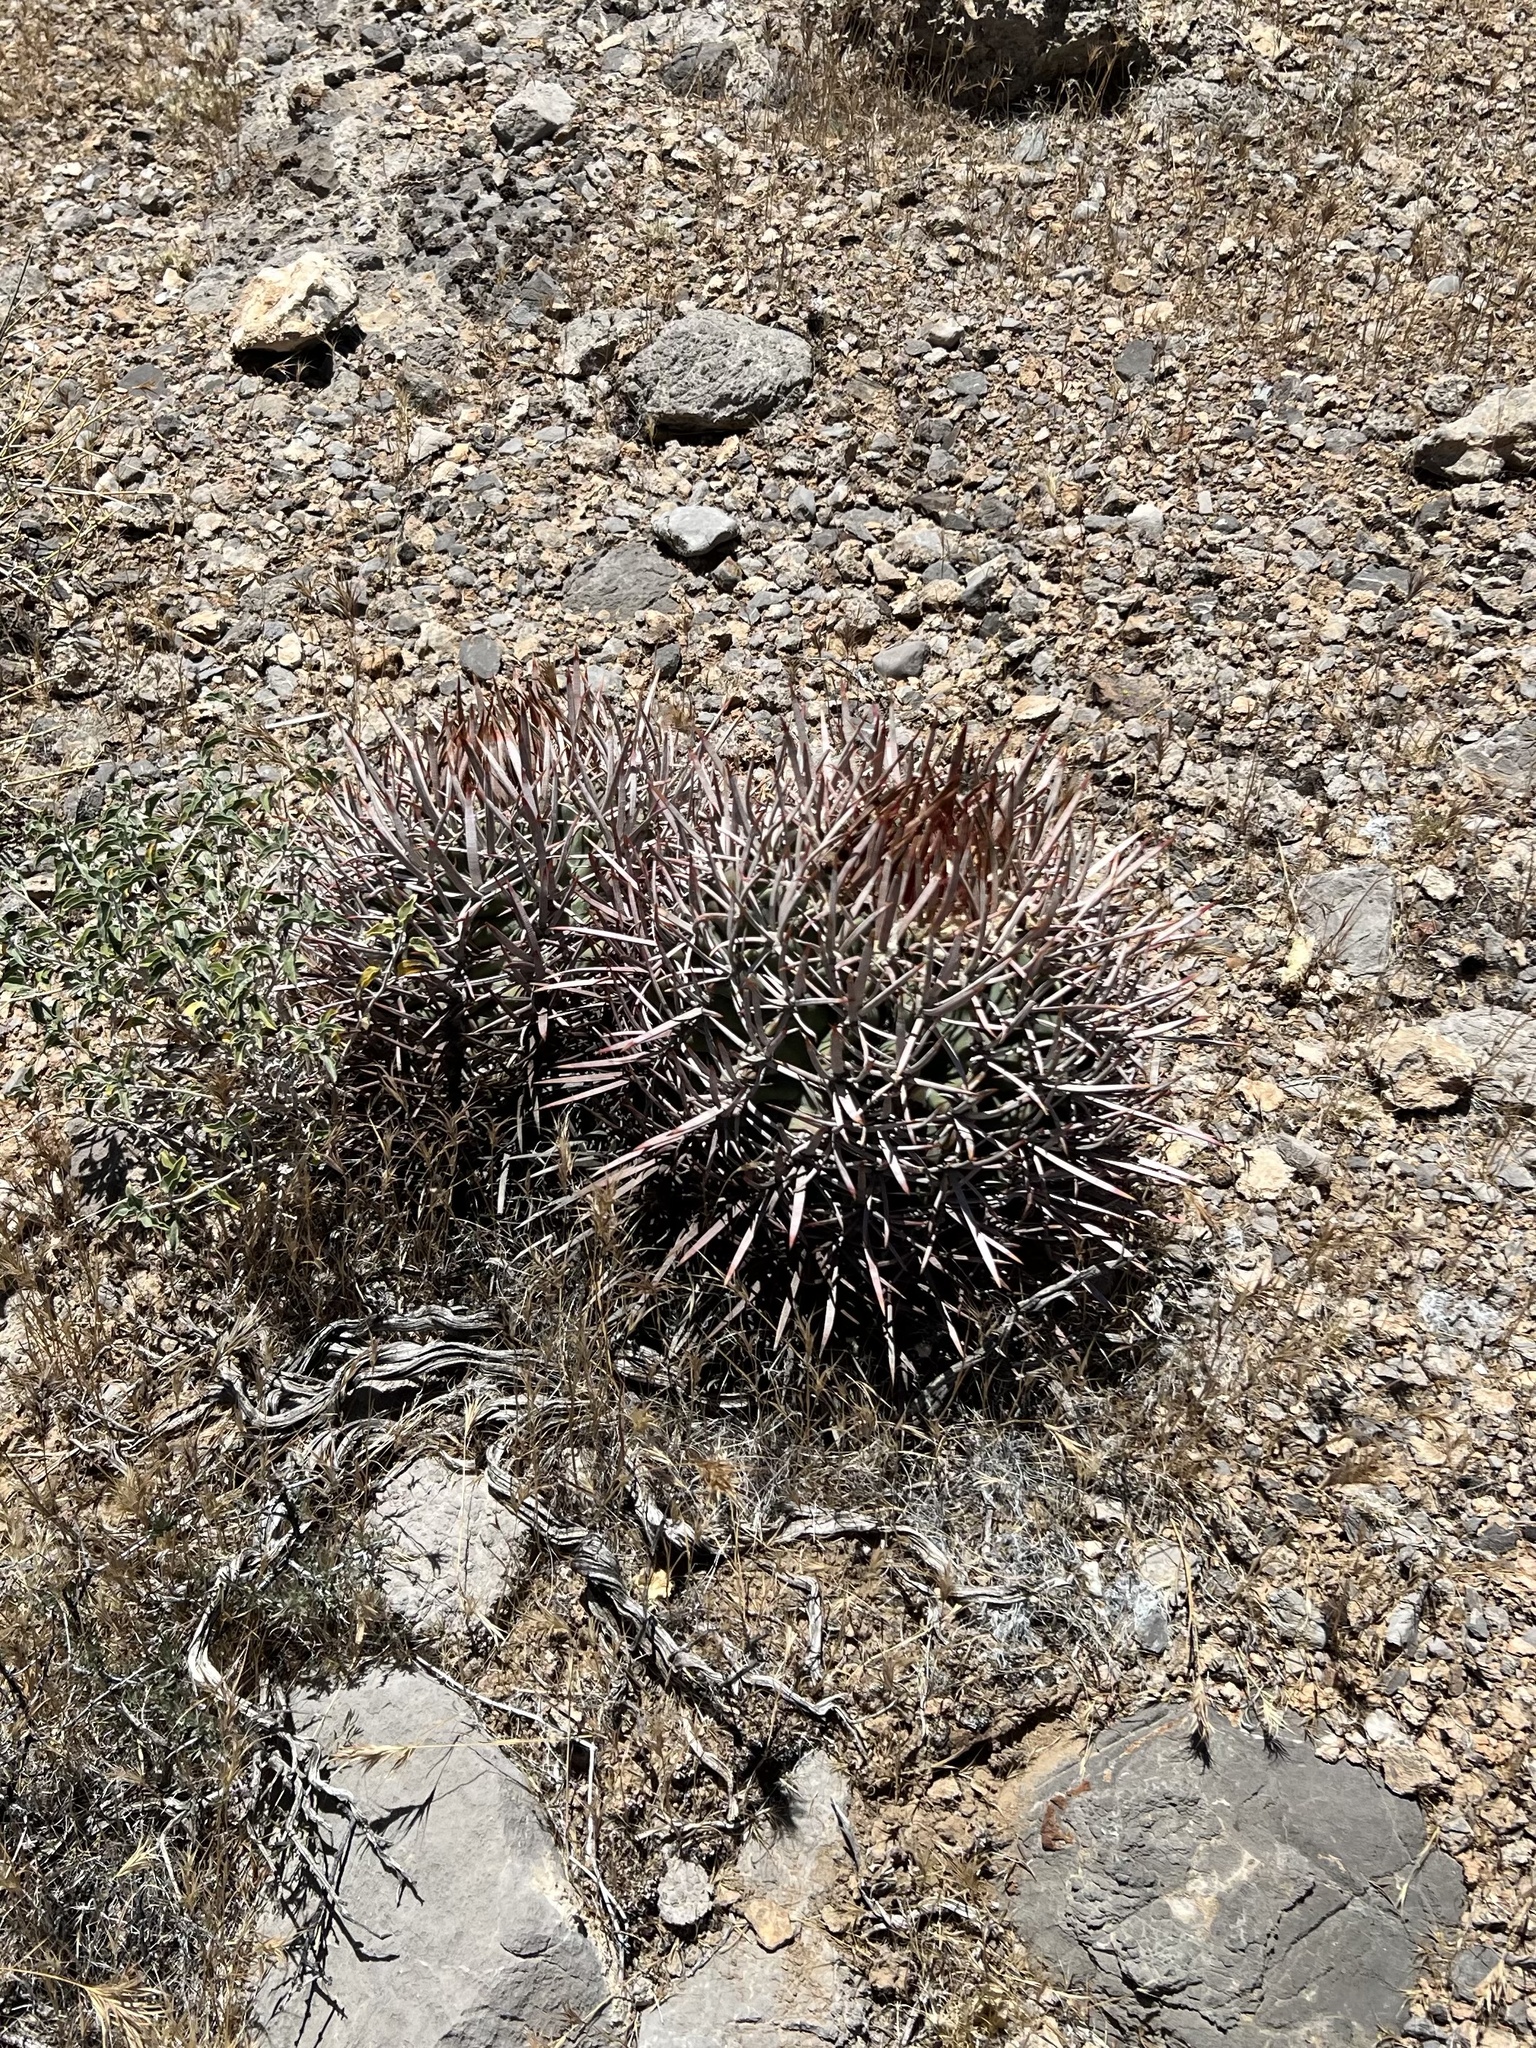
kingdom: Plantae
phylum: Tracheophyta
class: Magnoliopsida
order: Caryophyllales
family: Cactaceae
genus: Echinocactus
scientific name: Echinocactus polycephalus
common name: Cottontop cactus
